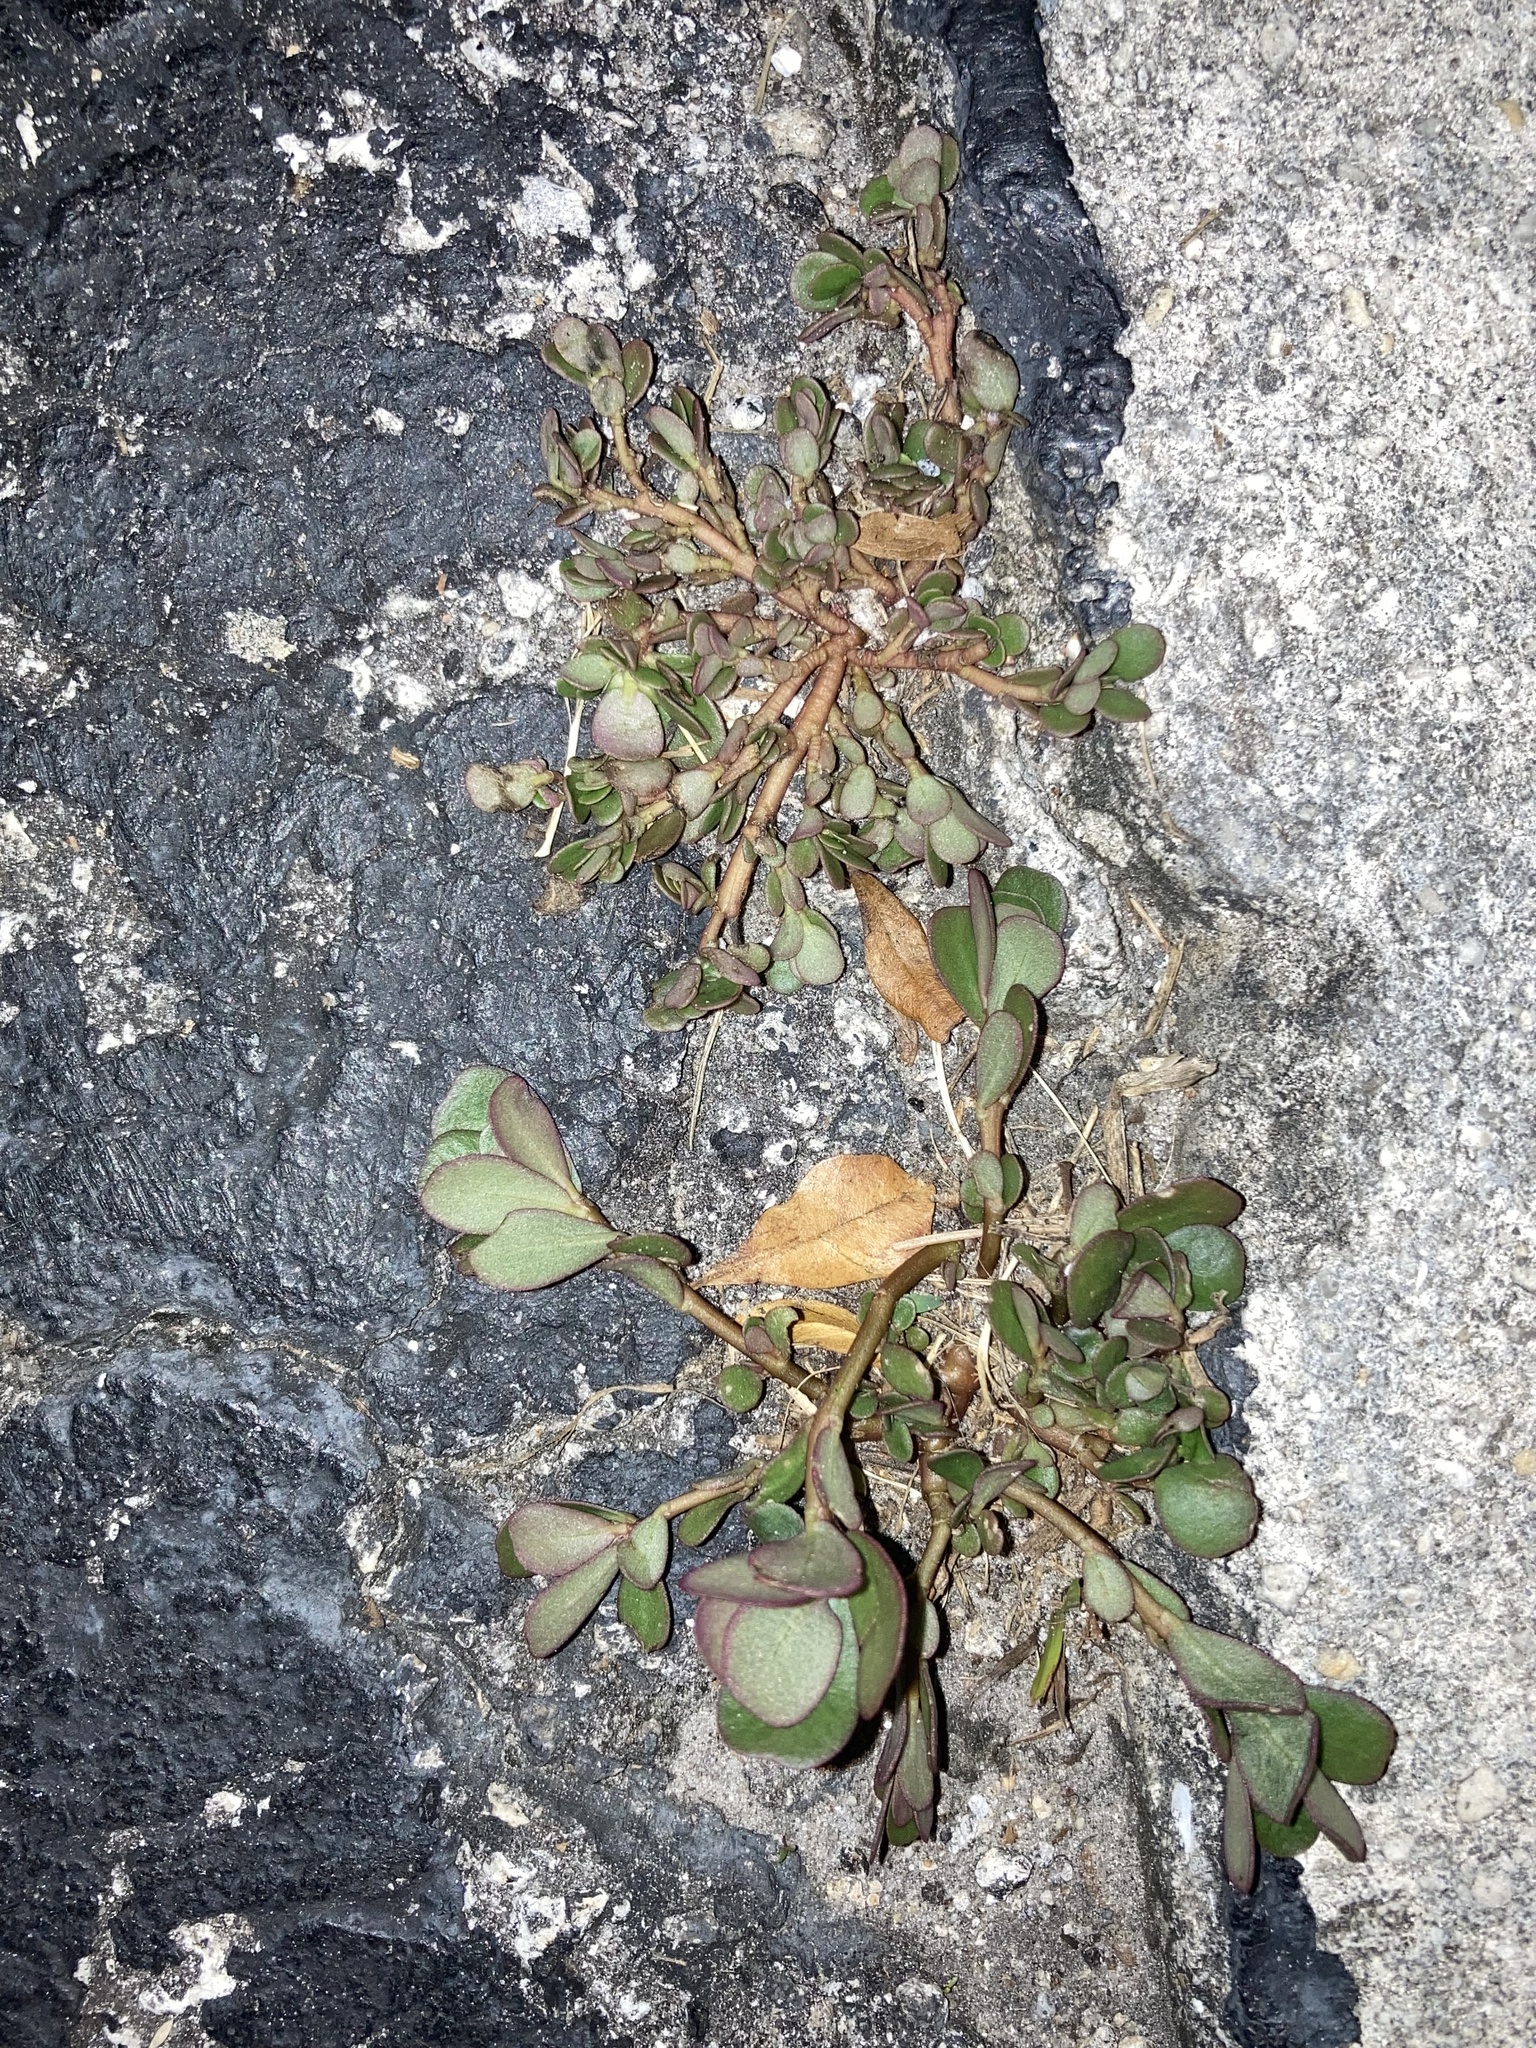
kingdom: Plantae
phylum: Tracheophyta
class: Magnoliopsida
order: Caryophyllales
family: Portulacaceae
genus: Portulaca
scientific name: Portulaca oleracea
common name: Common purslane
